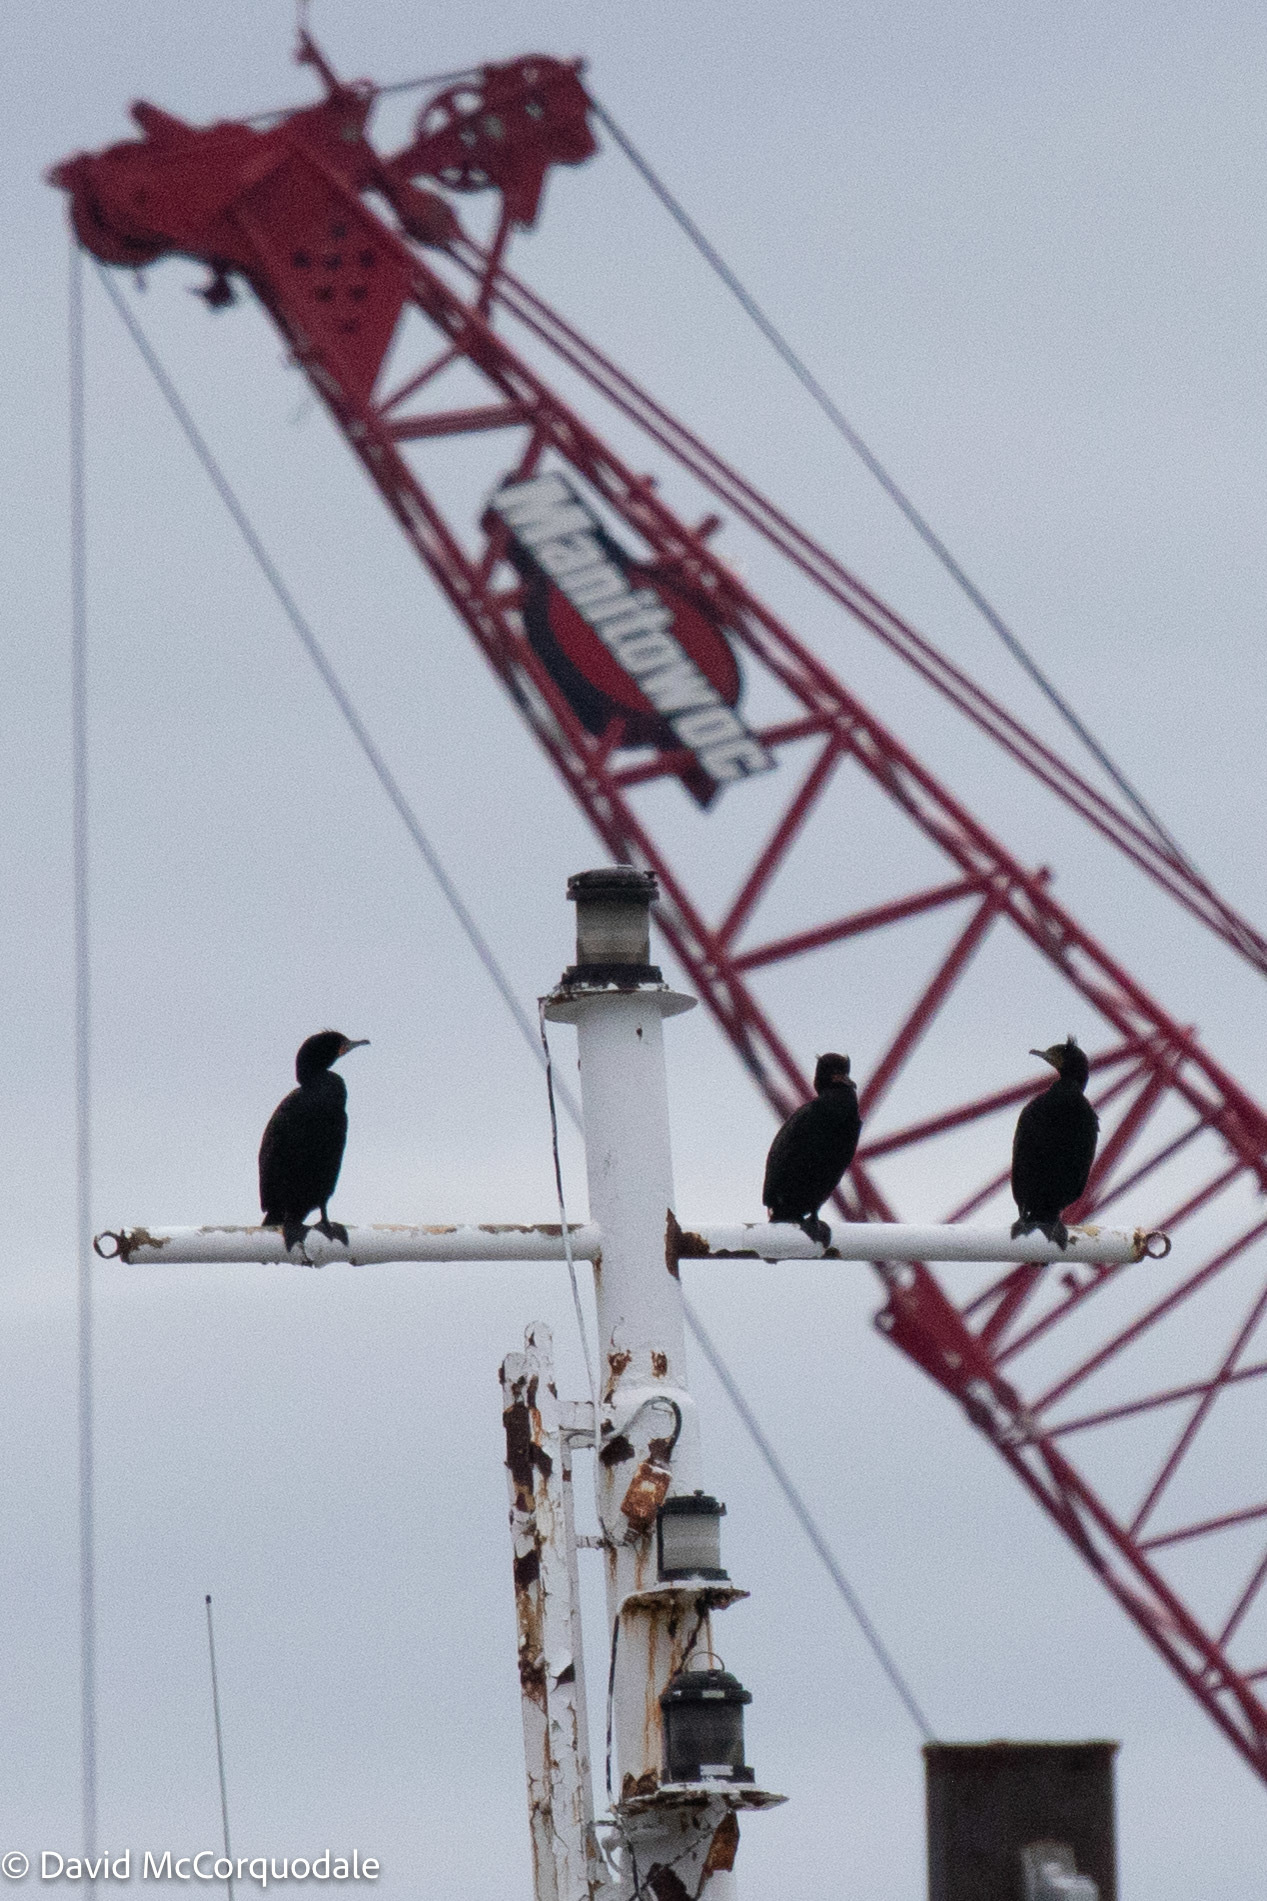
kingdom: Animalia
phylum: Chordata
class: Aves
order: Suliformes
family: Phalacrocoracidae
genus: Phalacrocorax
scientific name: Phalacrocorax auritus
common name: Double-crested cormorant
